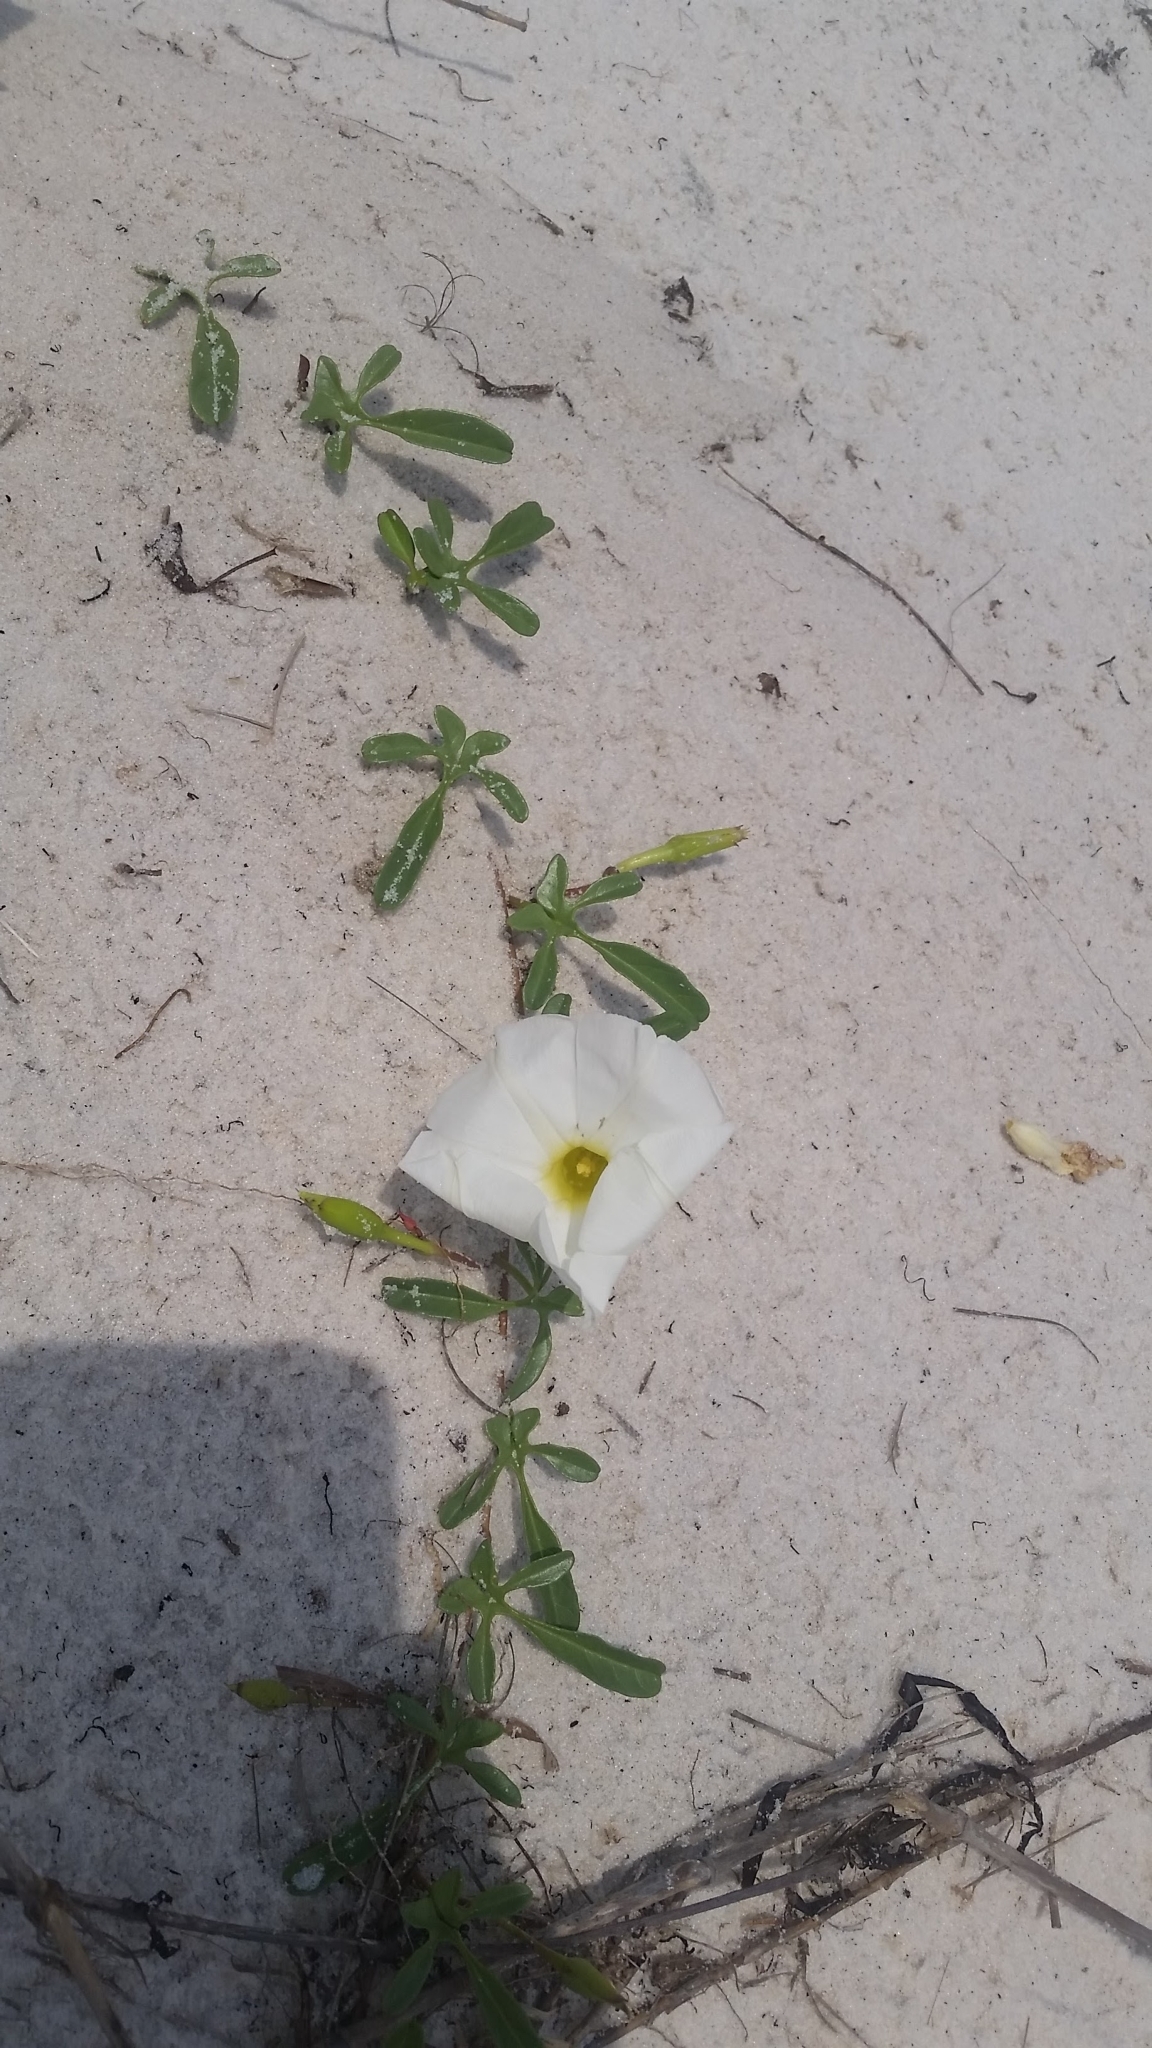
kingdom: Plantae
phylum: Tracheophyta
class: Magnoliopsida
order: Solanales
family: Convolvulaceae
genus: Ipomoea
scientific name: Ipomoea imperati
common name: Fiddle-leaf morning-glory
